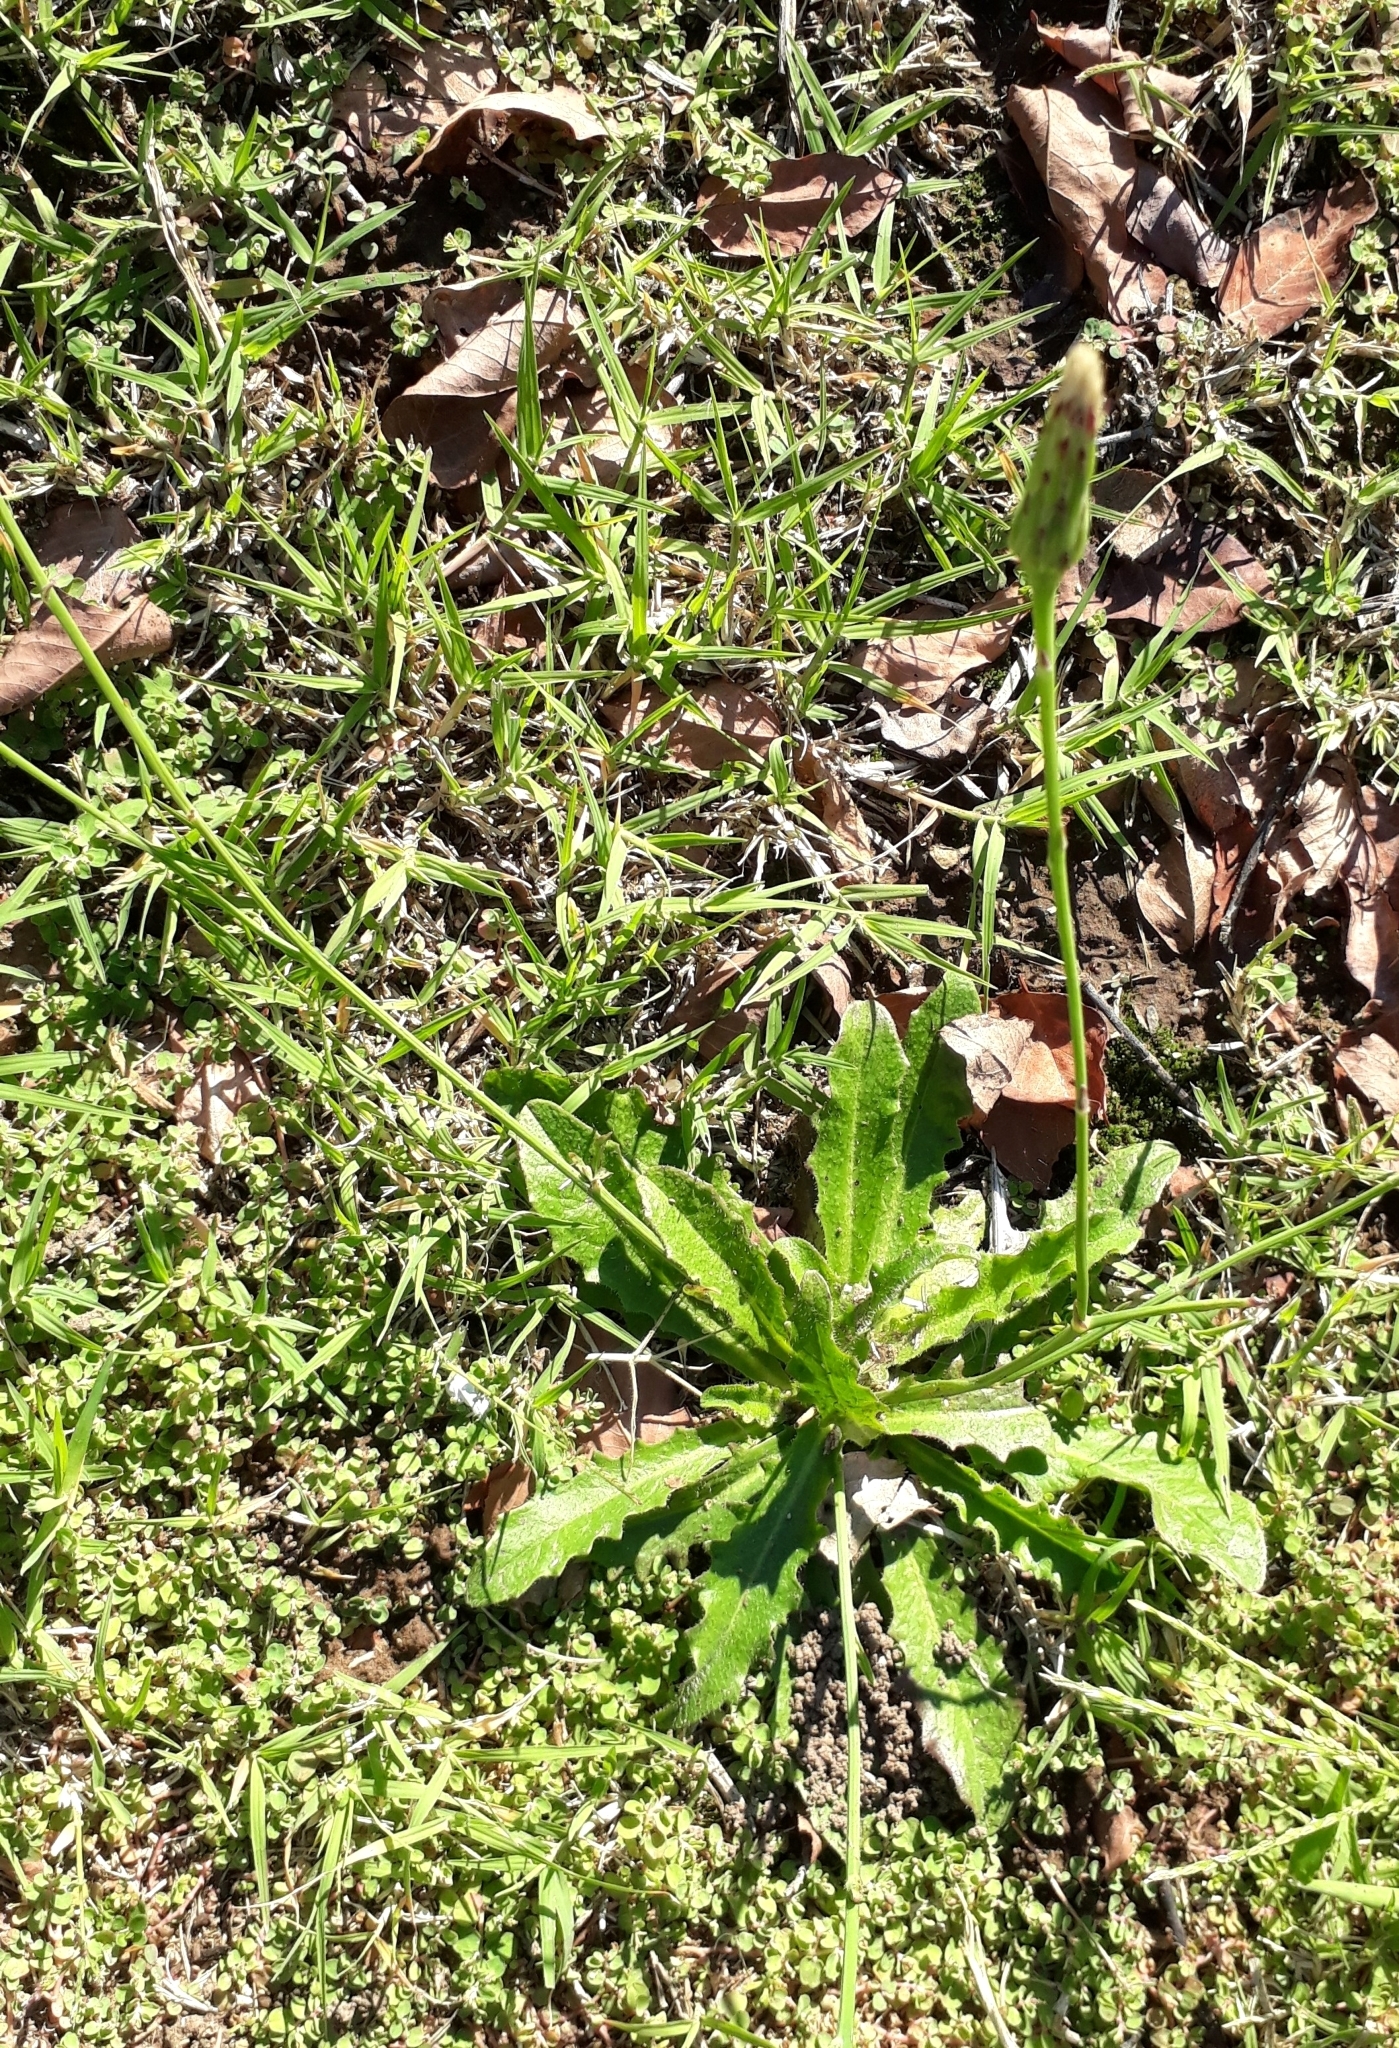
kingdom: Plantae
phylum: Tracheophyta
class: Magnoliopsida
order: Asterales
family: Asteraceae
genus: Hypochaeris
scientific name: Hypochaeris radicata
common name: Flatweed
